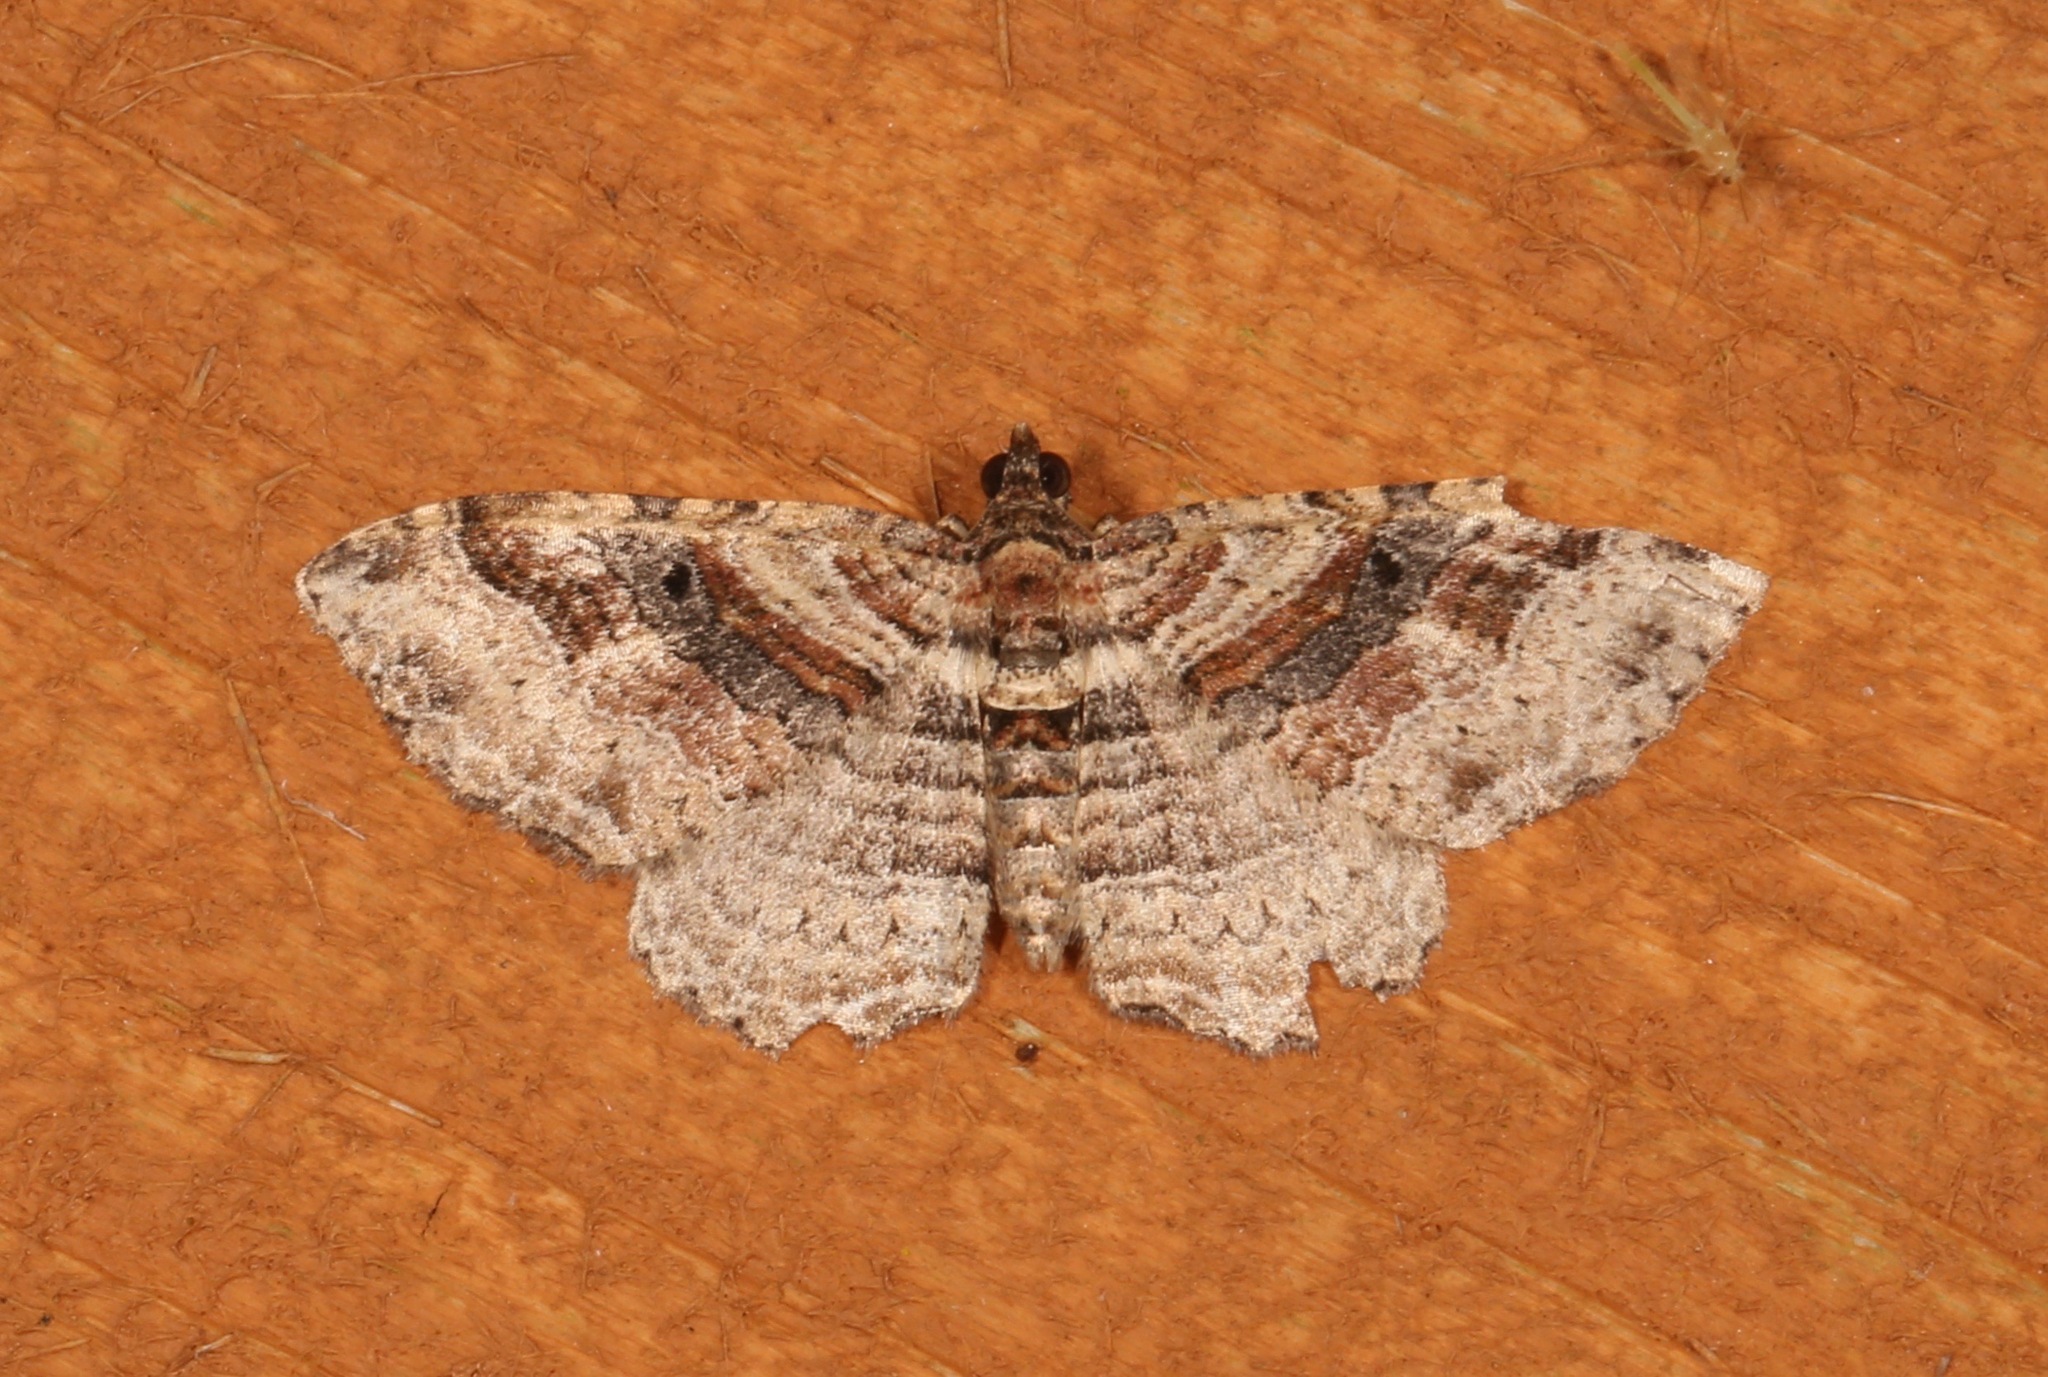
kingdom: Animalia
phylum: Arthropoda
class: Insecta
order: Lepidoptera
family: Geometridae
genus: Costaconvexa
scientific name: Costaconvexa centrostrigaria
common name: Bent-line carpet
